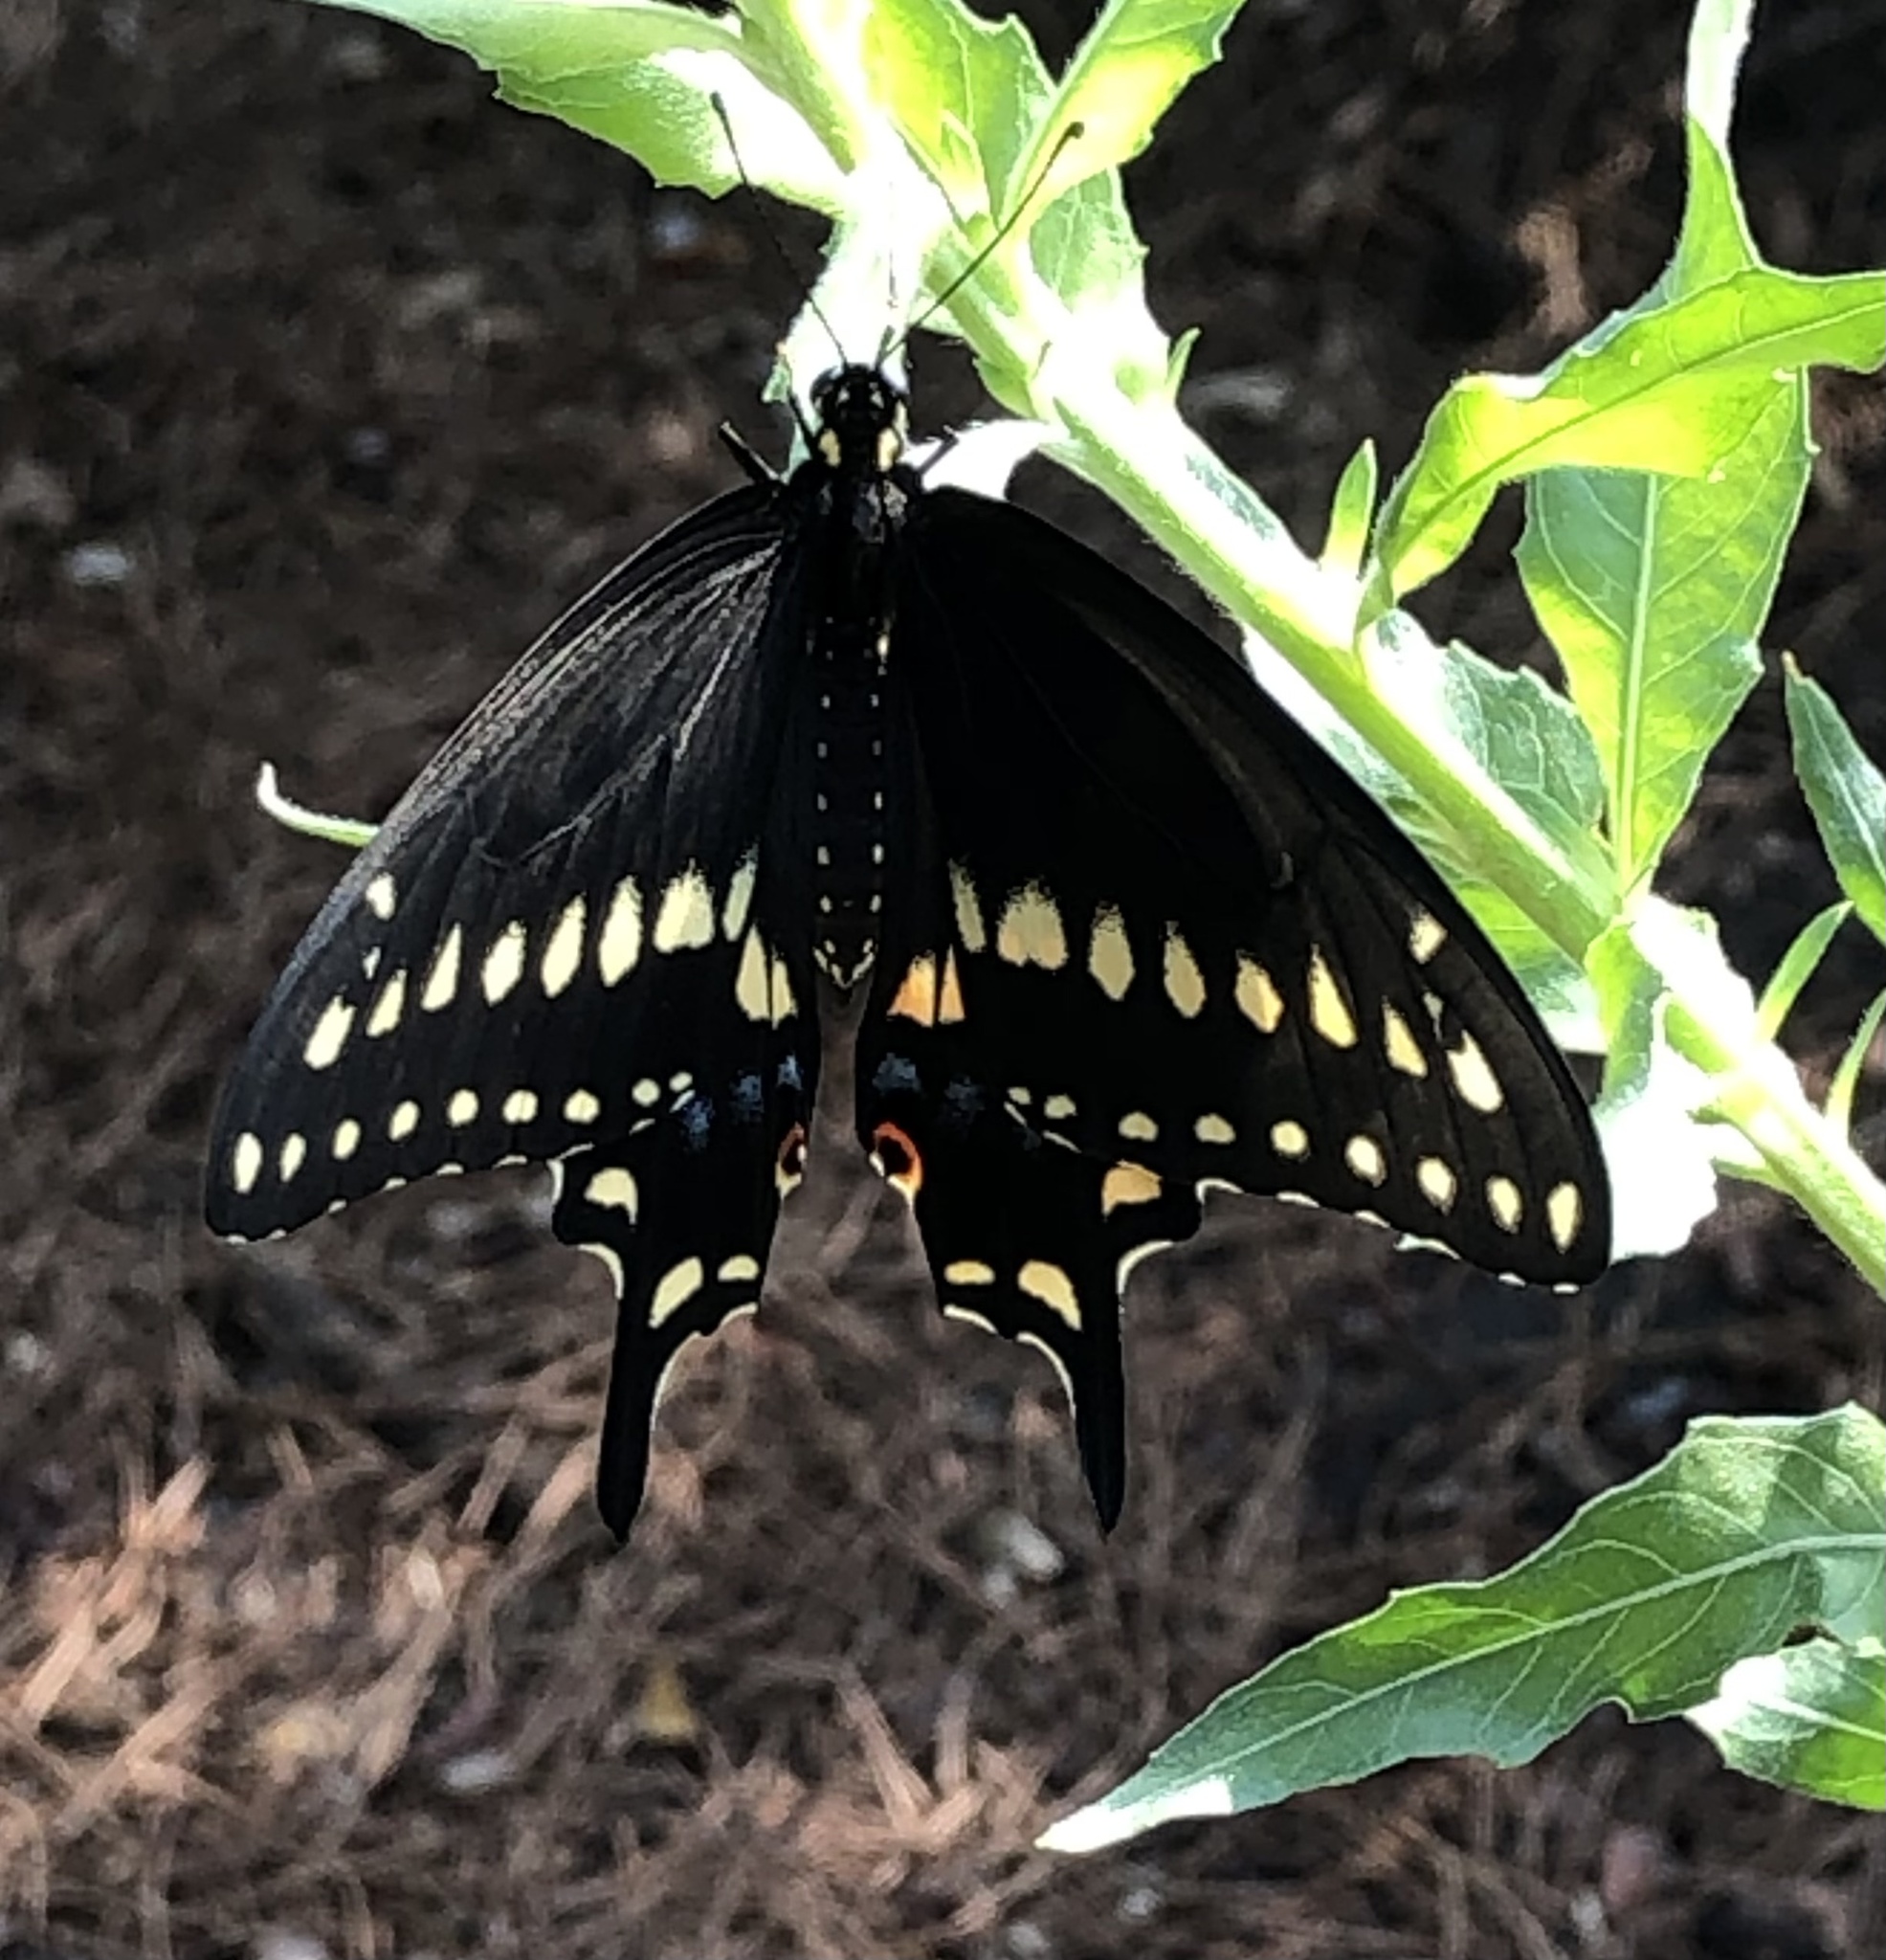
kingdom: Animalia
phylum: Arthropoda
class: Insecta
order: Lepidoptera
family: Papilionidae
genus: Papilio
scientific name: Papilio polyxenes
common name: Black swallowtail
